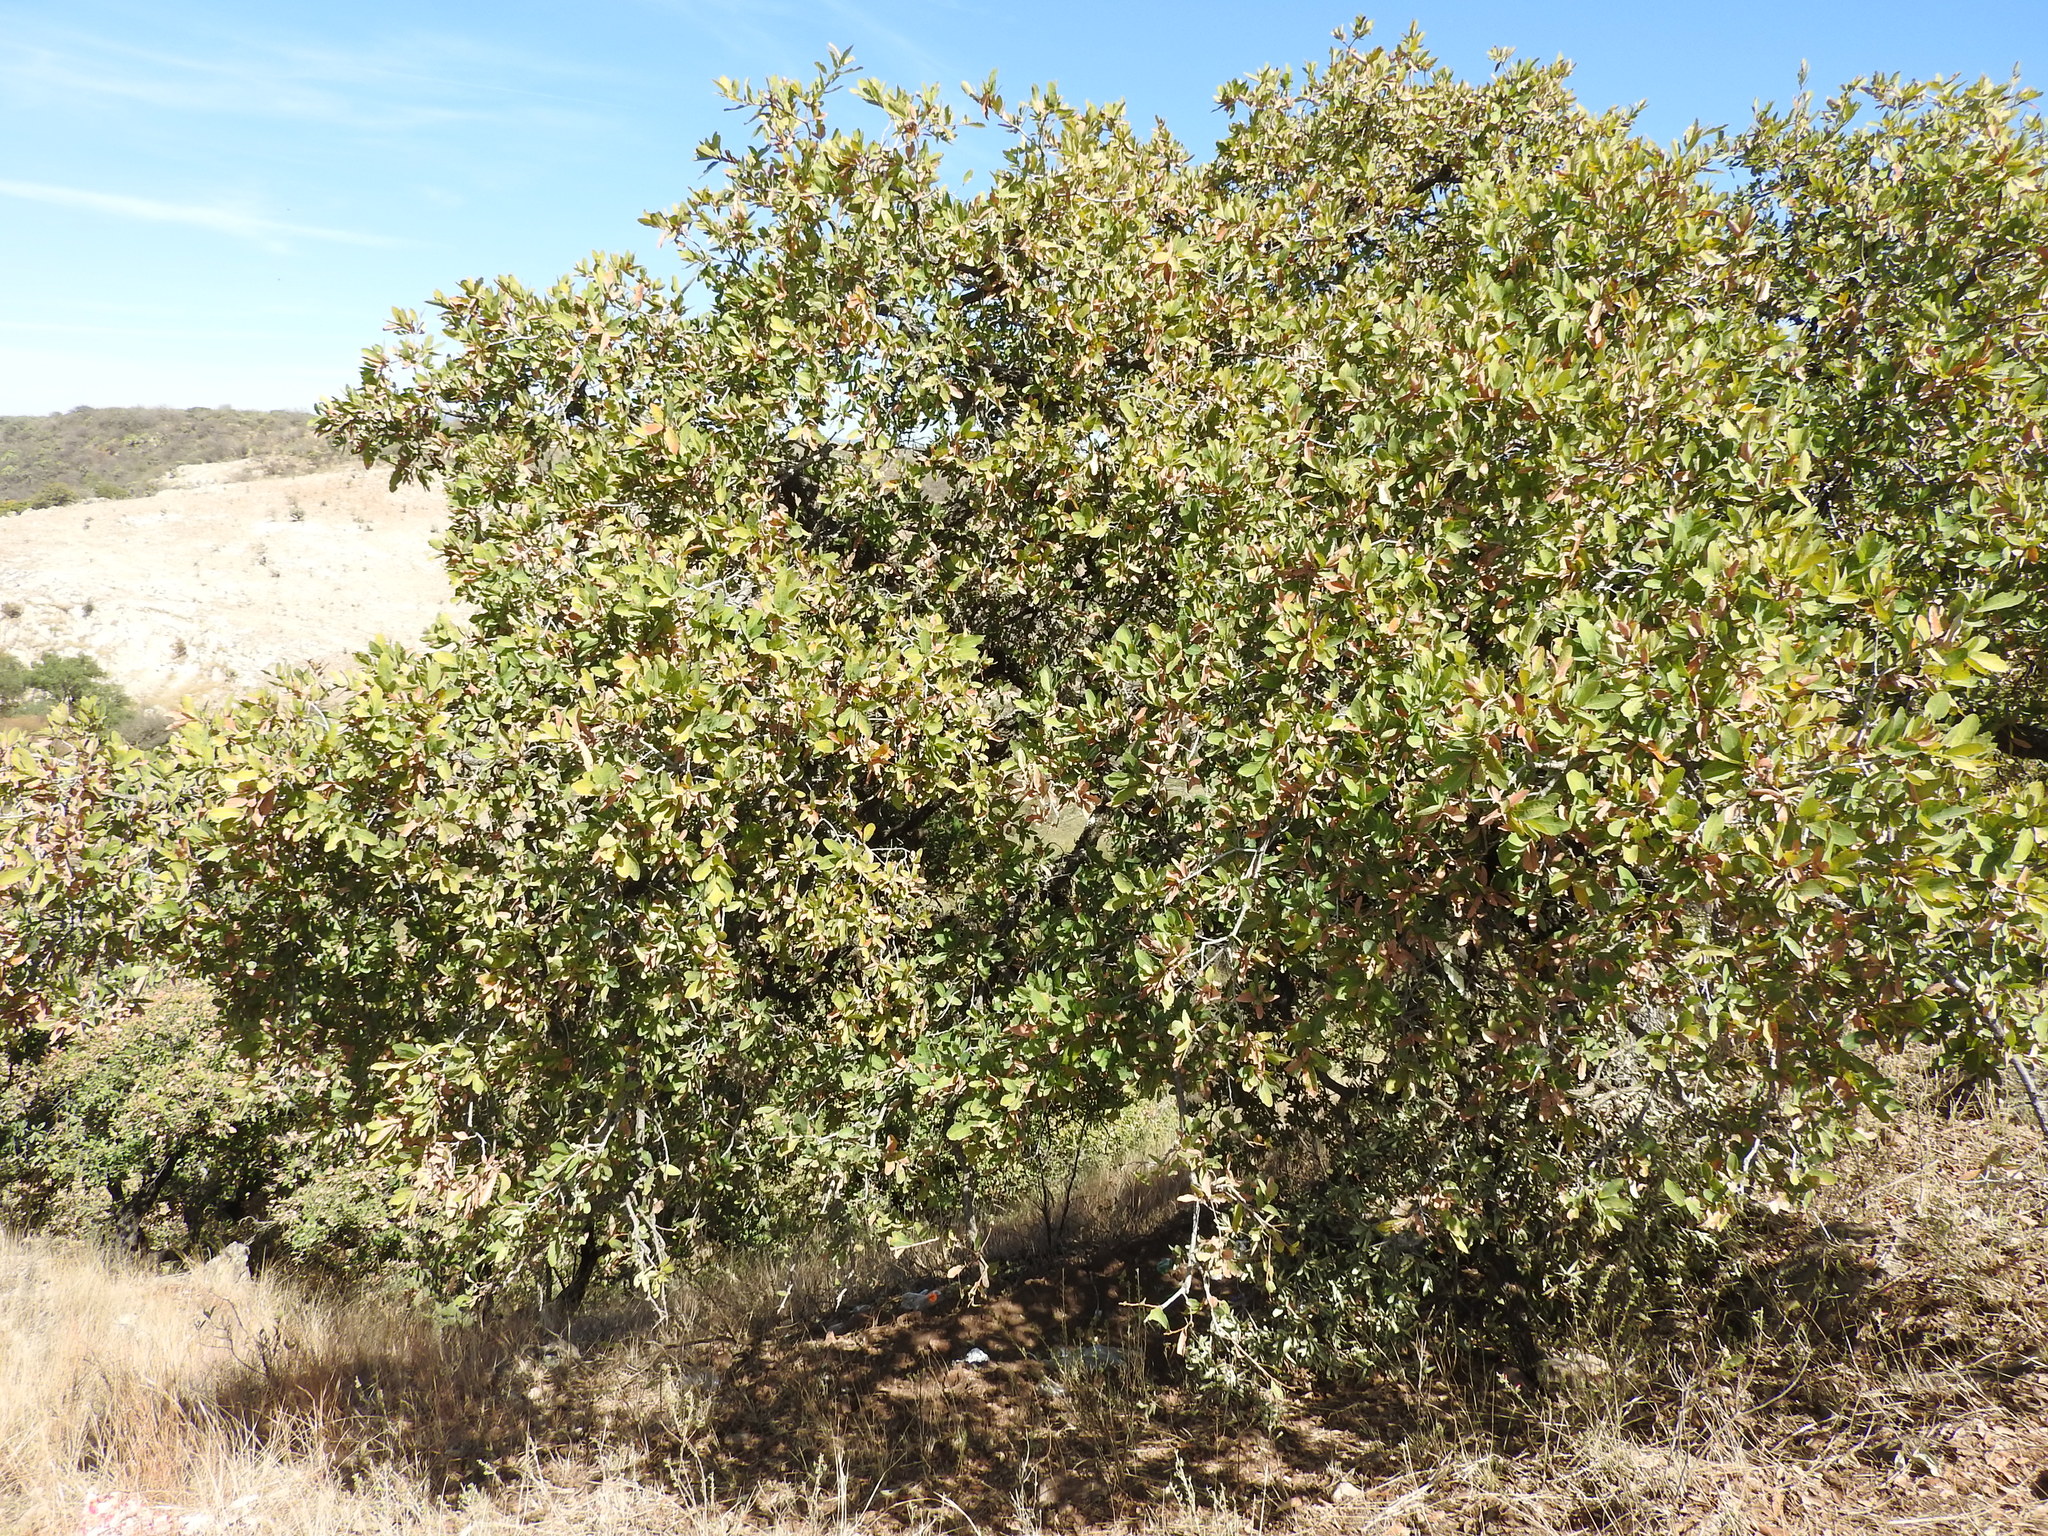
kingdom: Plantae
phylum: Tracheophyta
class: Magnoliopsida
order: Fagales
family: Fagaceae
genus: Quercus
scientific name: Quercus
